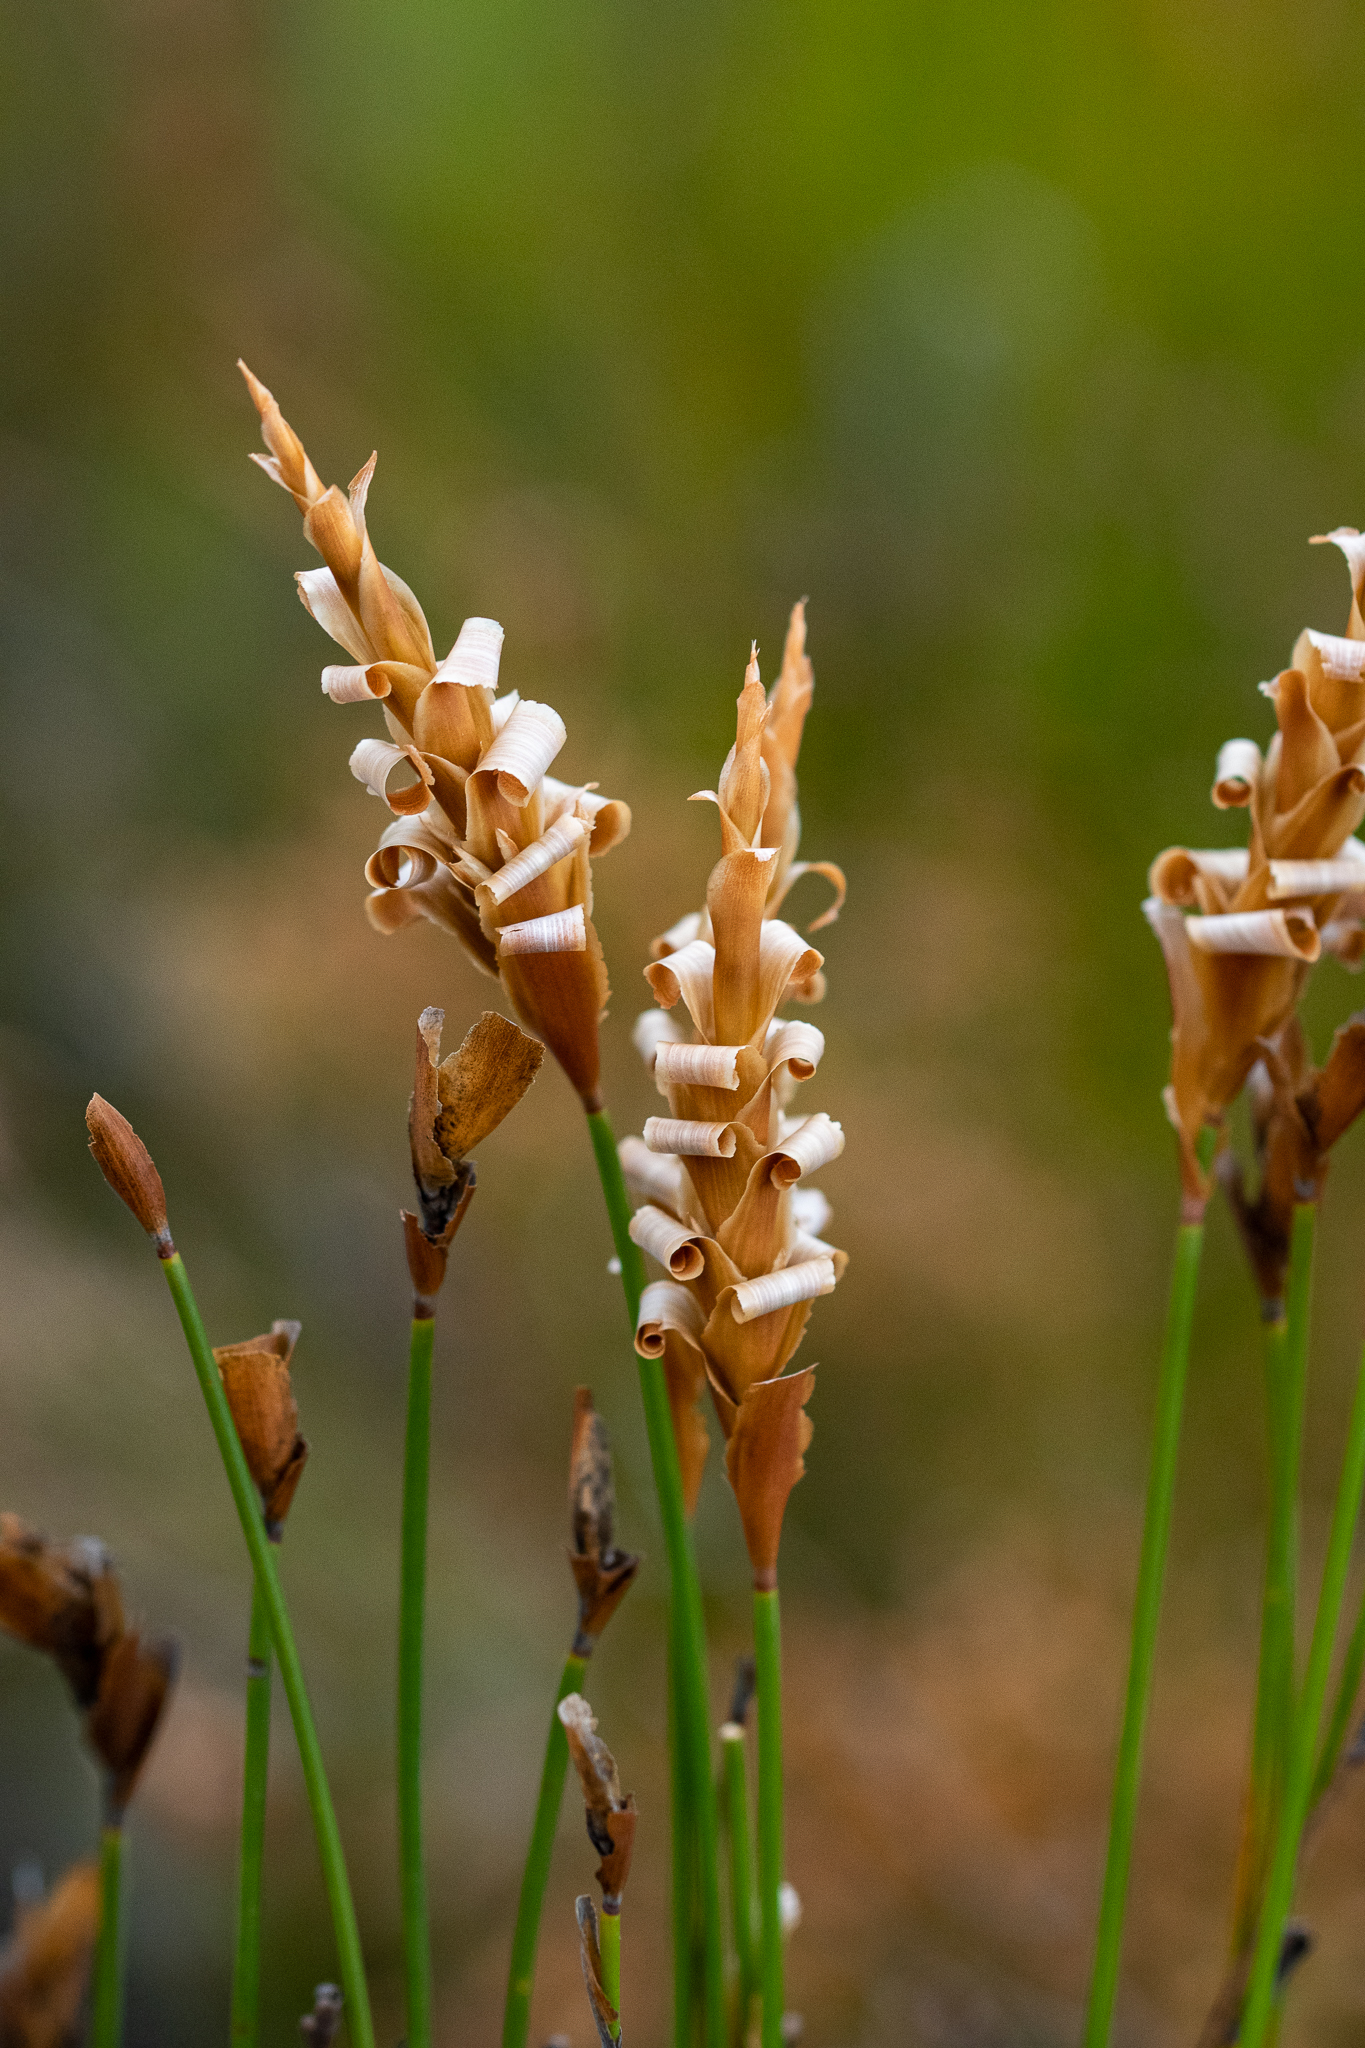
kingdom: Plantae
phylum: Tracheophyta
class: Liliopsida
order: Poales
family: Restionaceae
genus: Elegia
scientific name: Elegia spathacea
